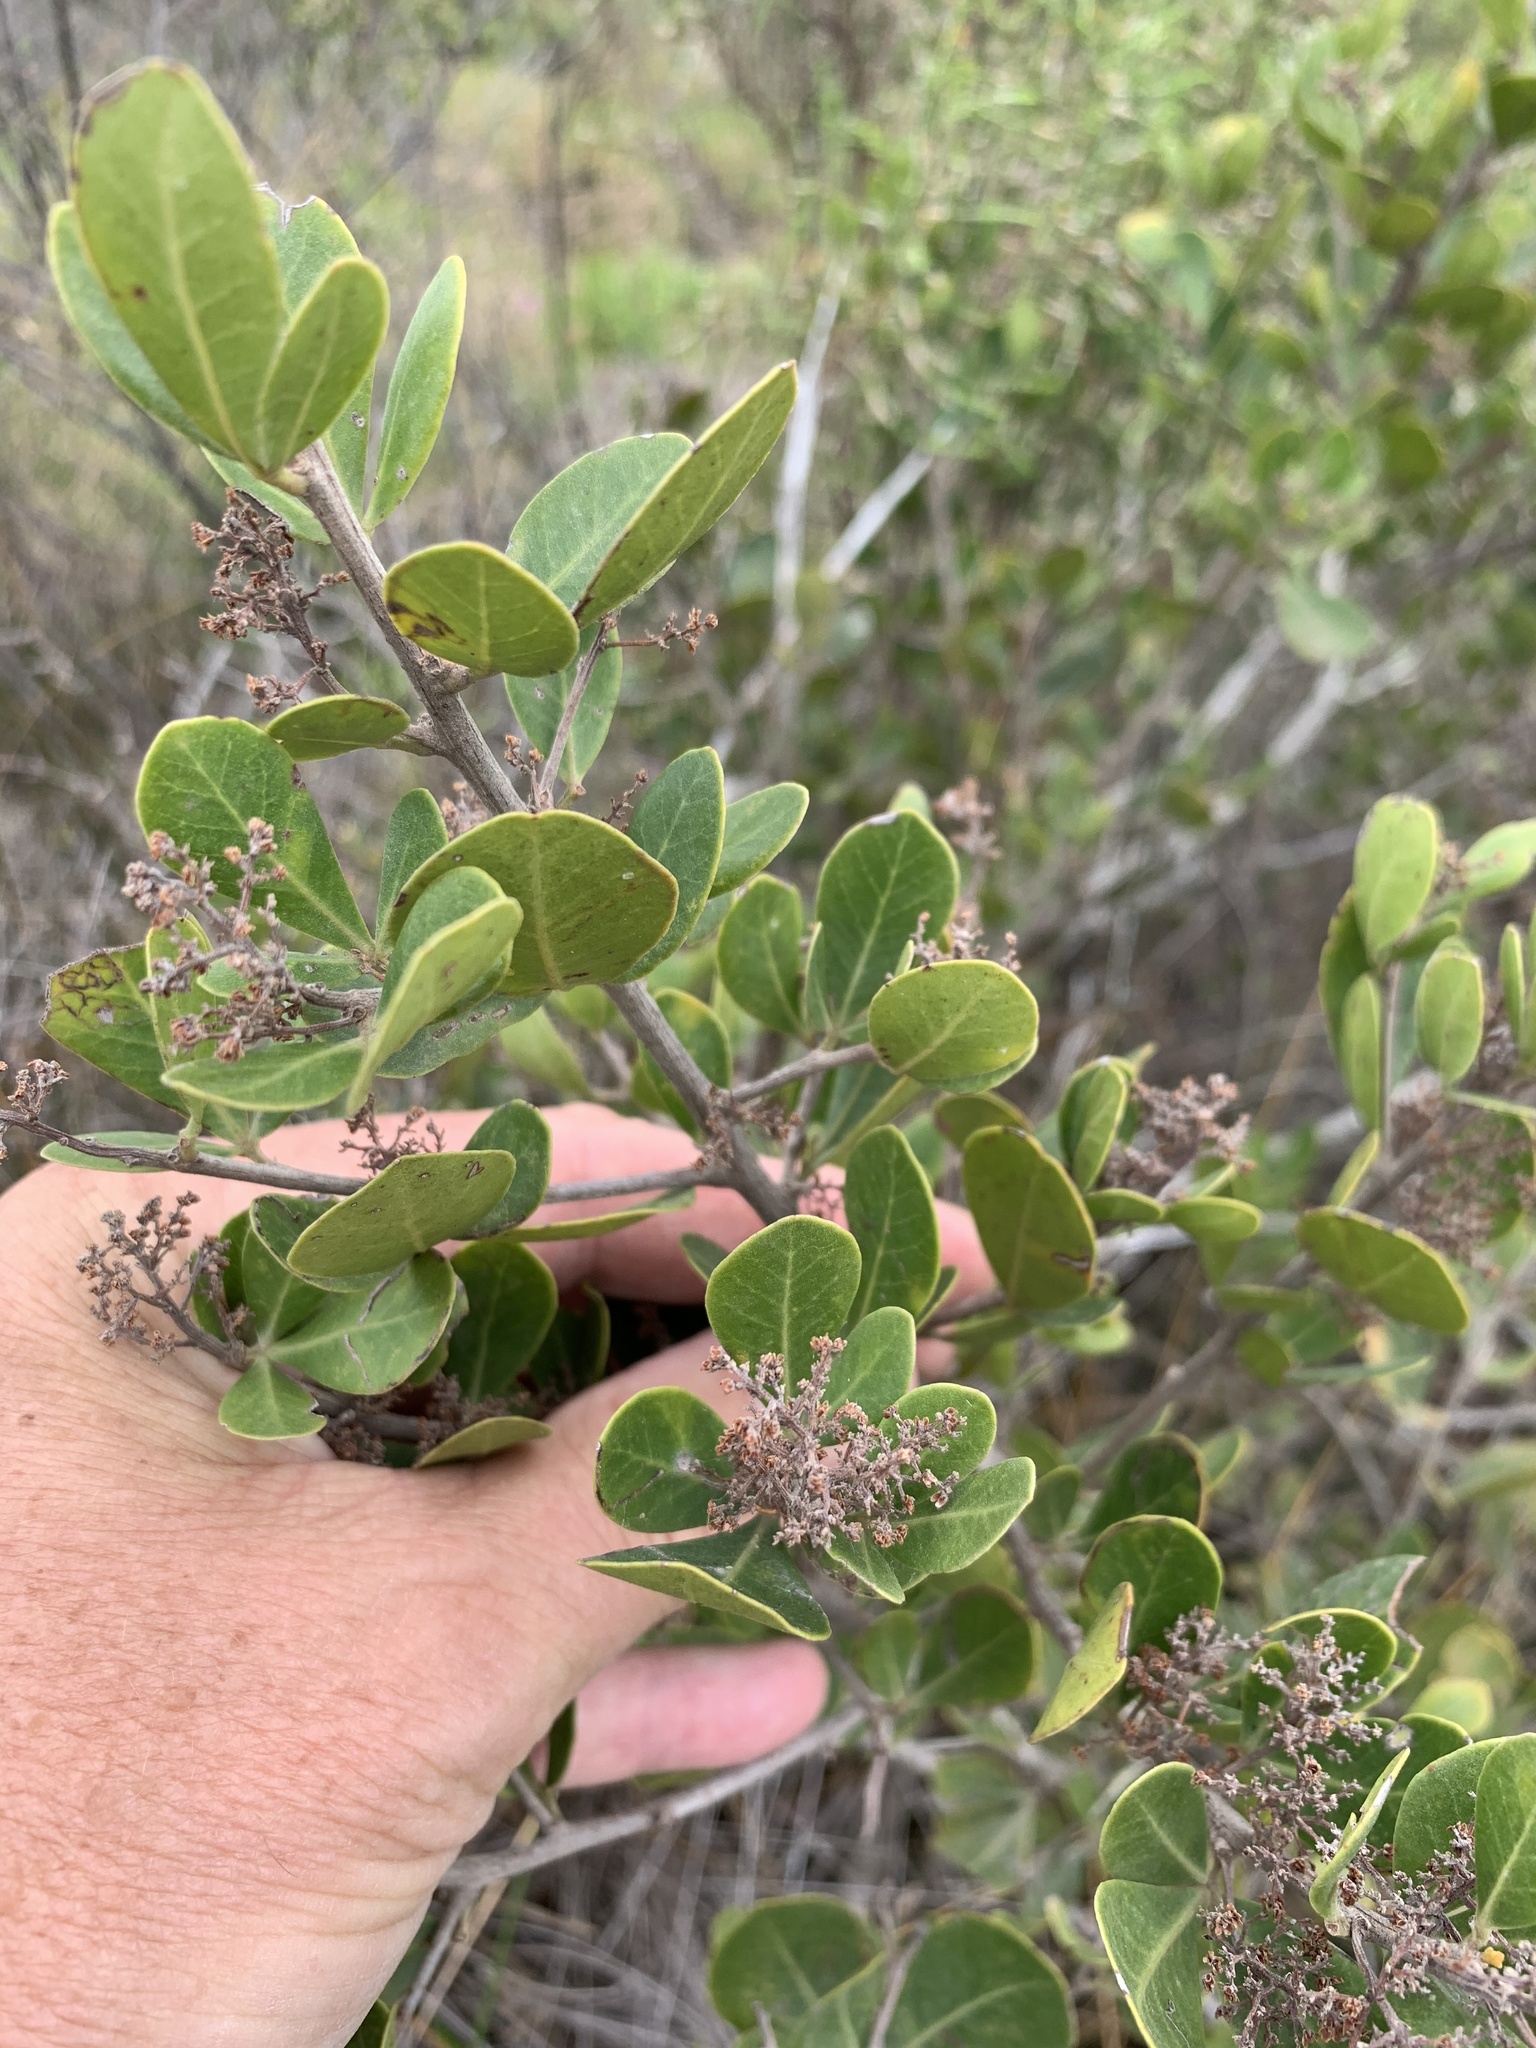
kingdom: Plantae
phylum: Tracheophyta
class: Magnoliopsida
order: Sapindales
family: Anacardiaceae
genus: Searsia
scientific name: Searsia lucida
